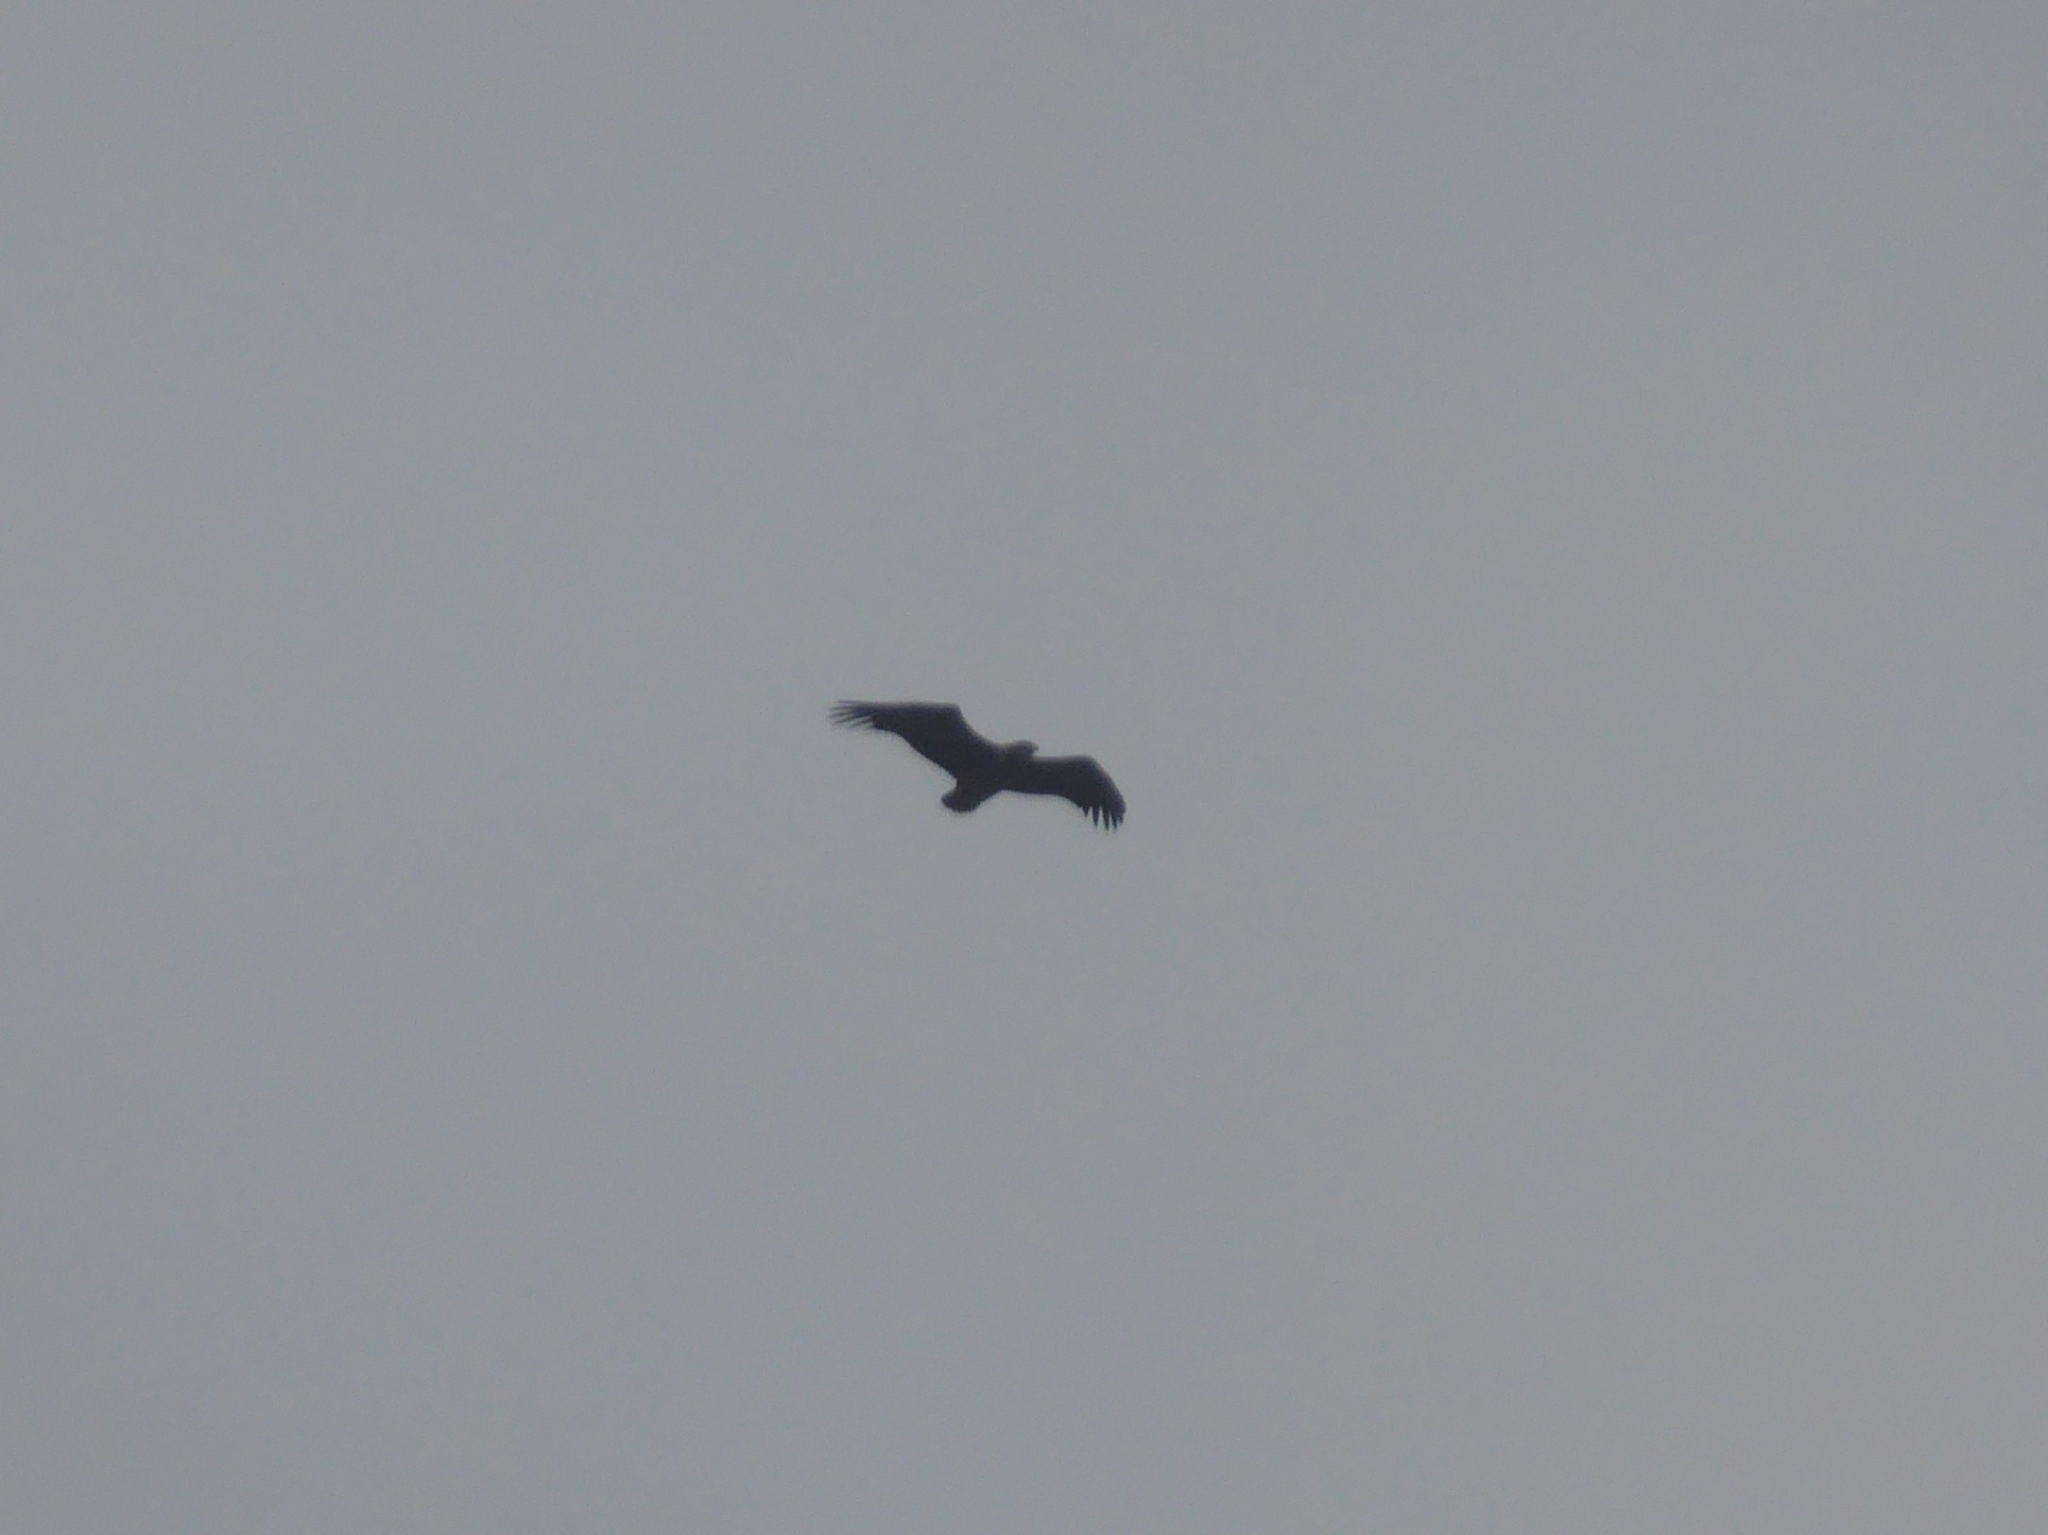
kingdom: Animalia
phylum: Chordata
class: Aves
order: Accipitriformes
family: Accipitridae
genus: Terathopius
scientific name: Terathopius ecaudatus
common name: Bateleur
